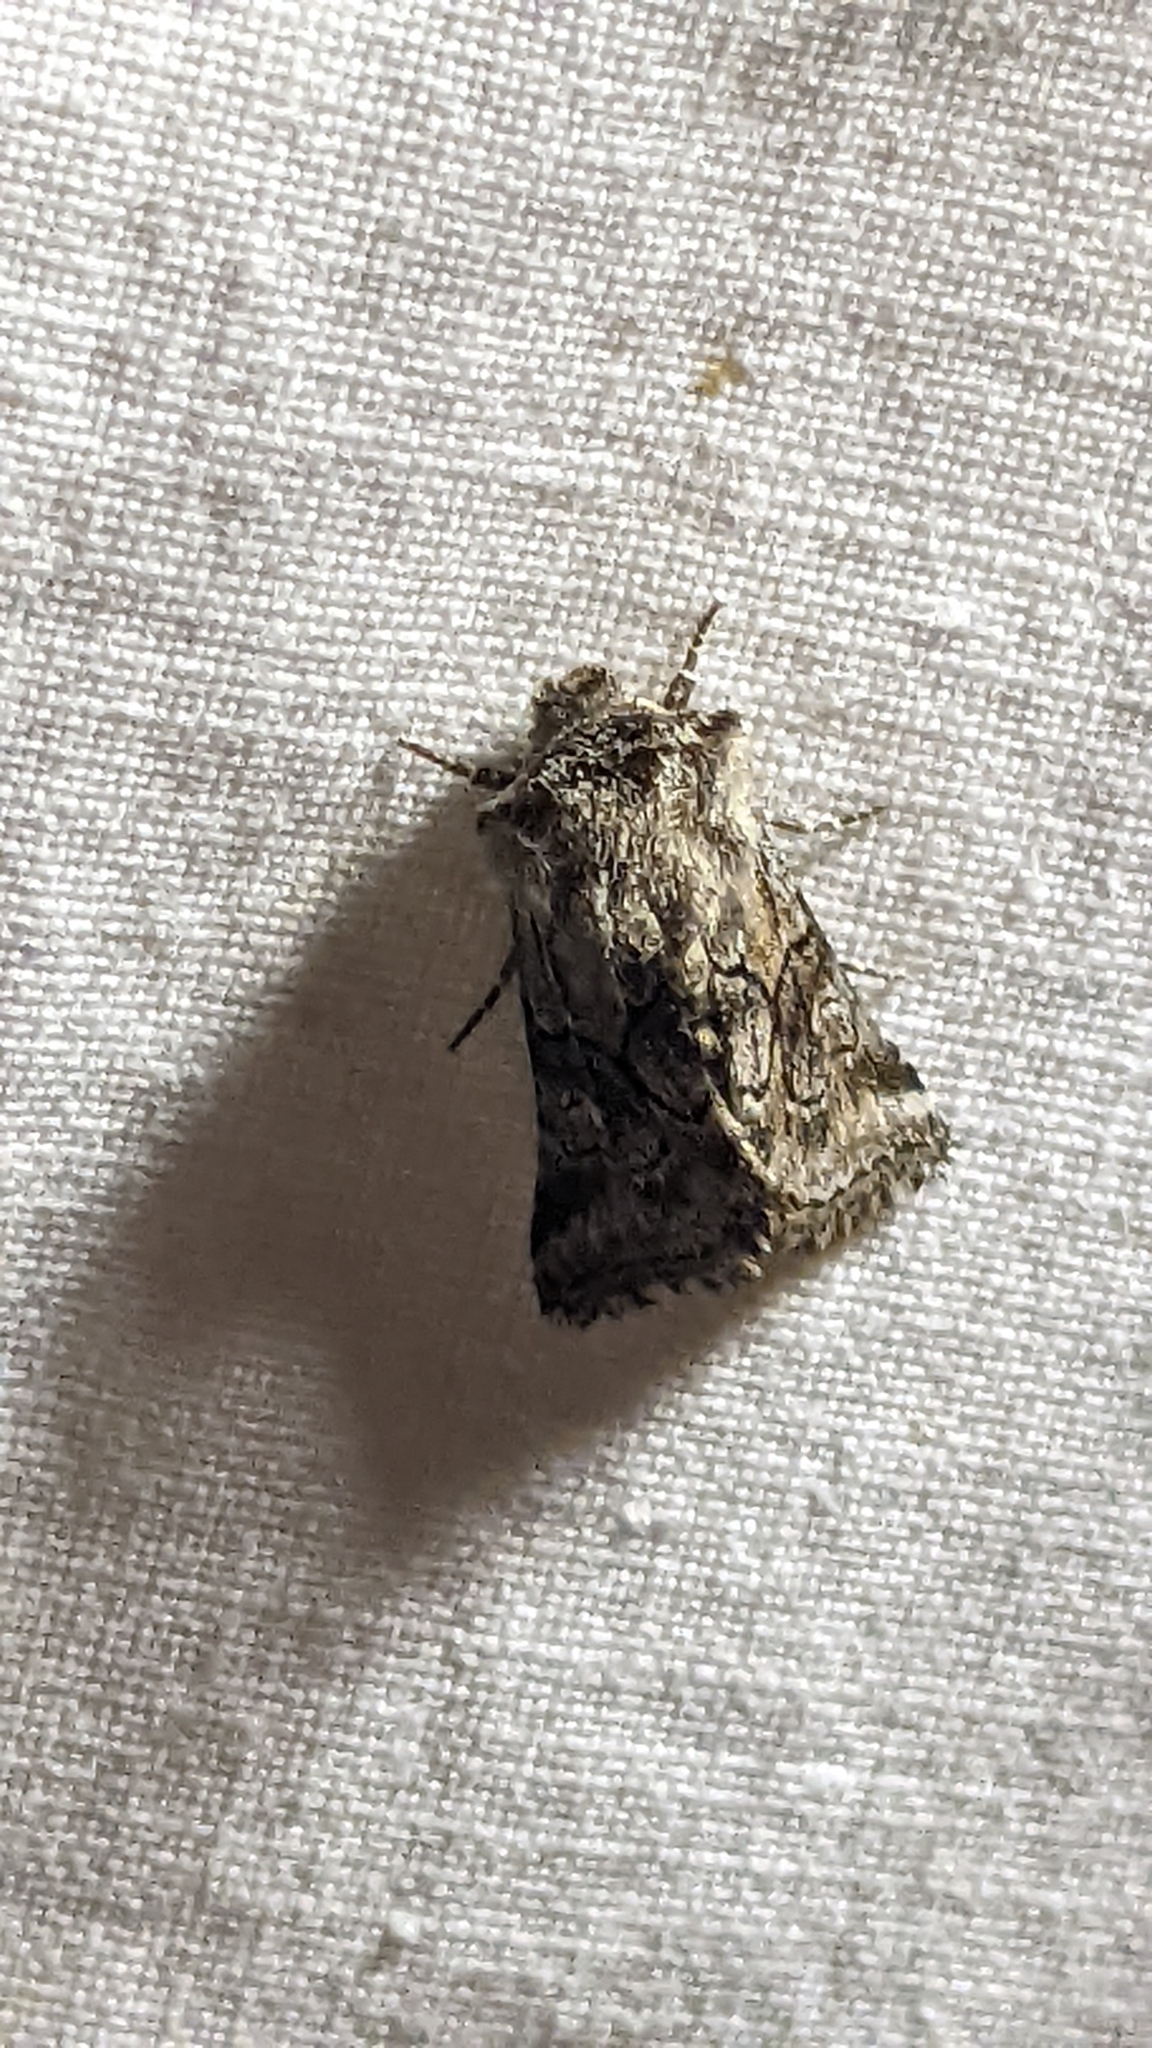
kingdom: Animalia
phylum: Arthropoda
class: Insecta
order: Lepidoptera
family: Noctuidae
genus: Cleonymia
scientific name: Cleonymia yvanii
